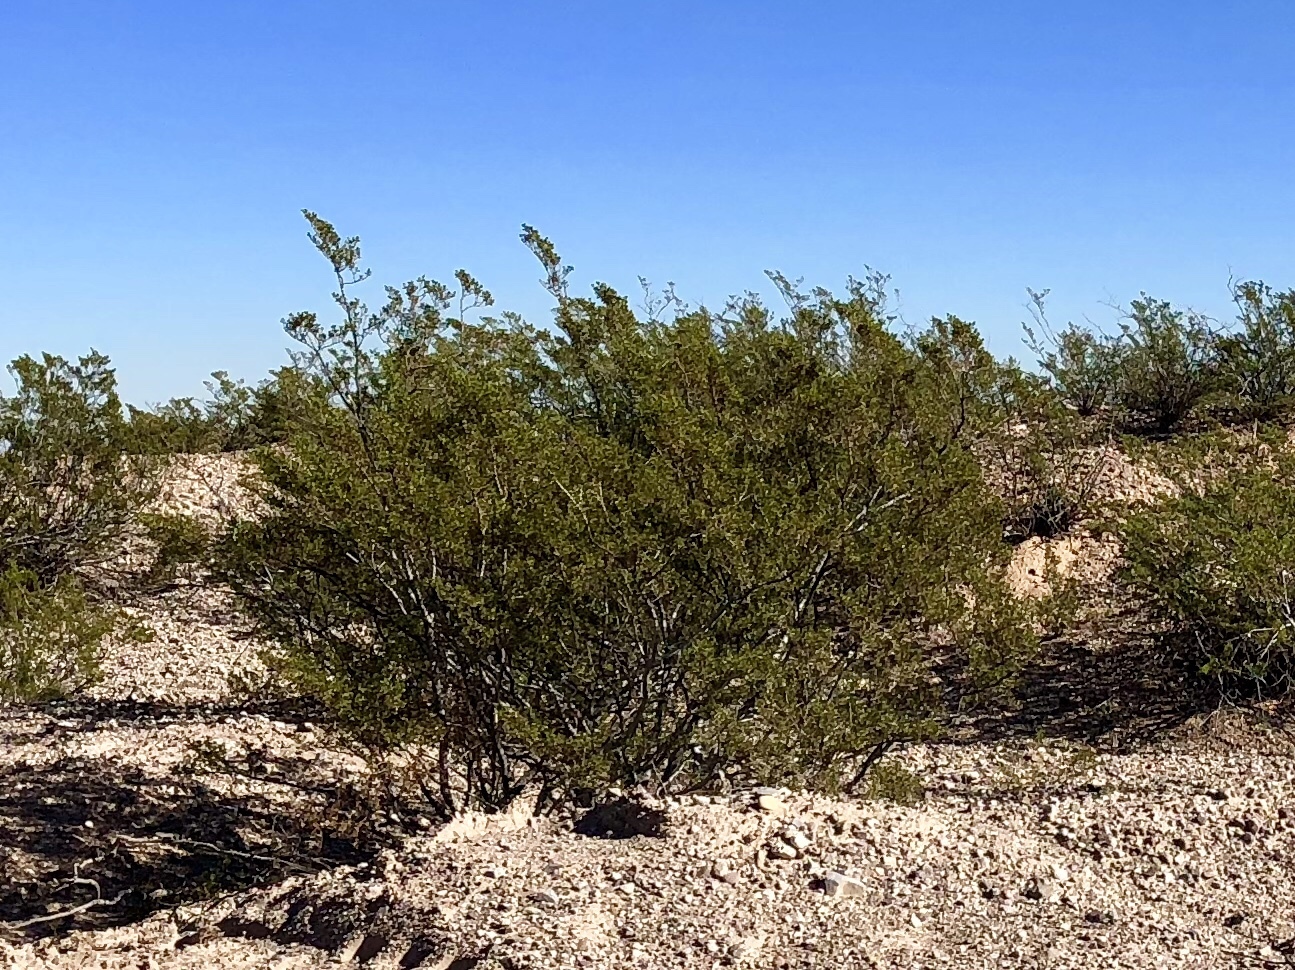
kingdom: Plantae
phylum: Tracheophyta
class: Magnoliopsida
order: Zygophyllales
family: Zygophyllaceae
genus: Larrea
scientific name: Larrea tridentata
